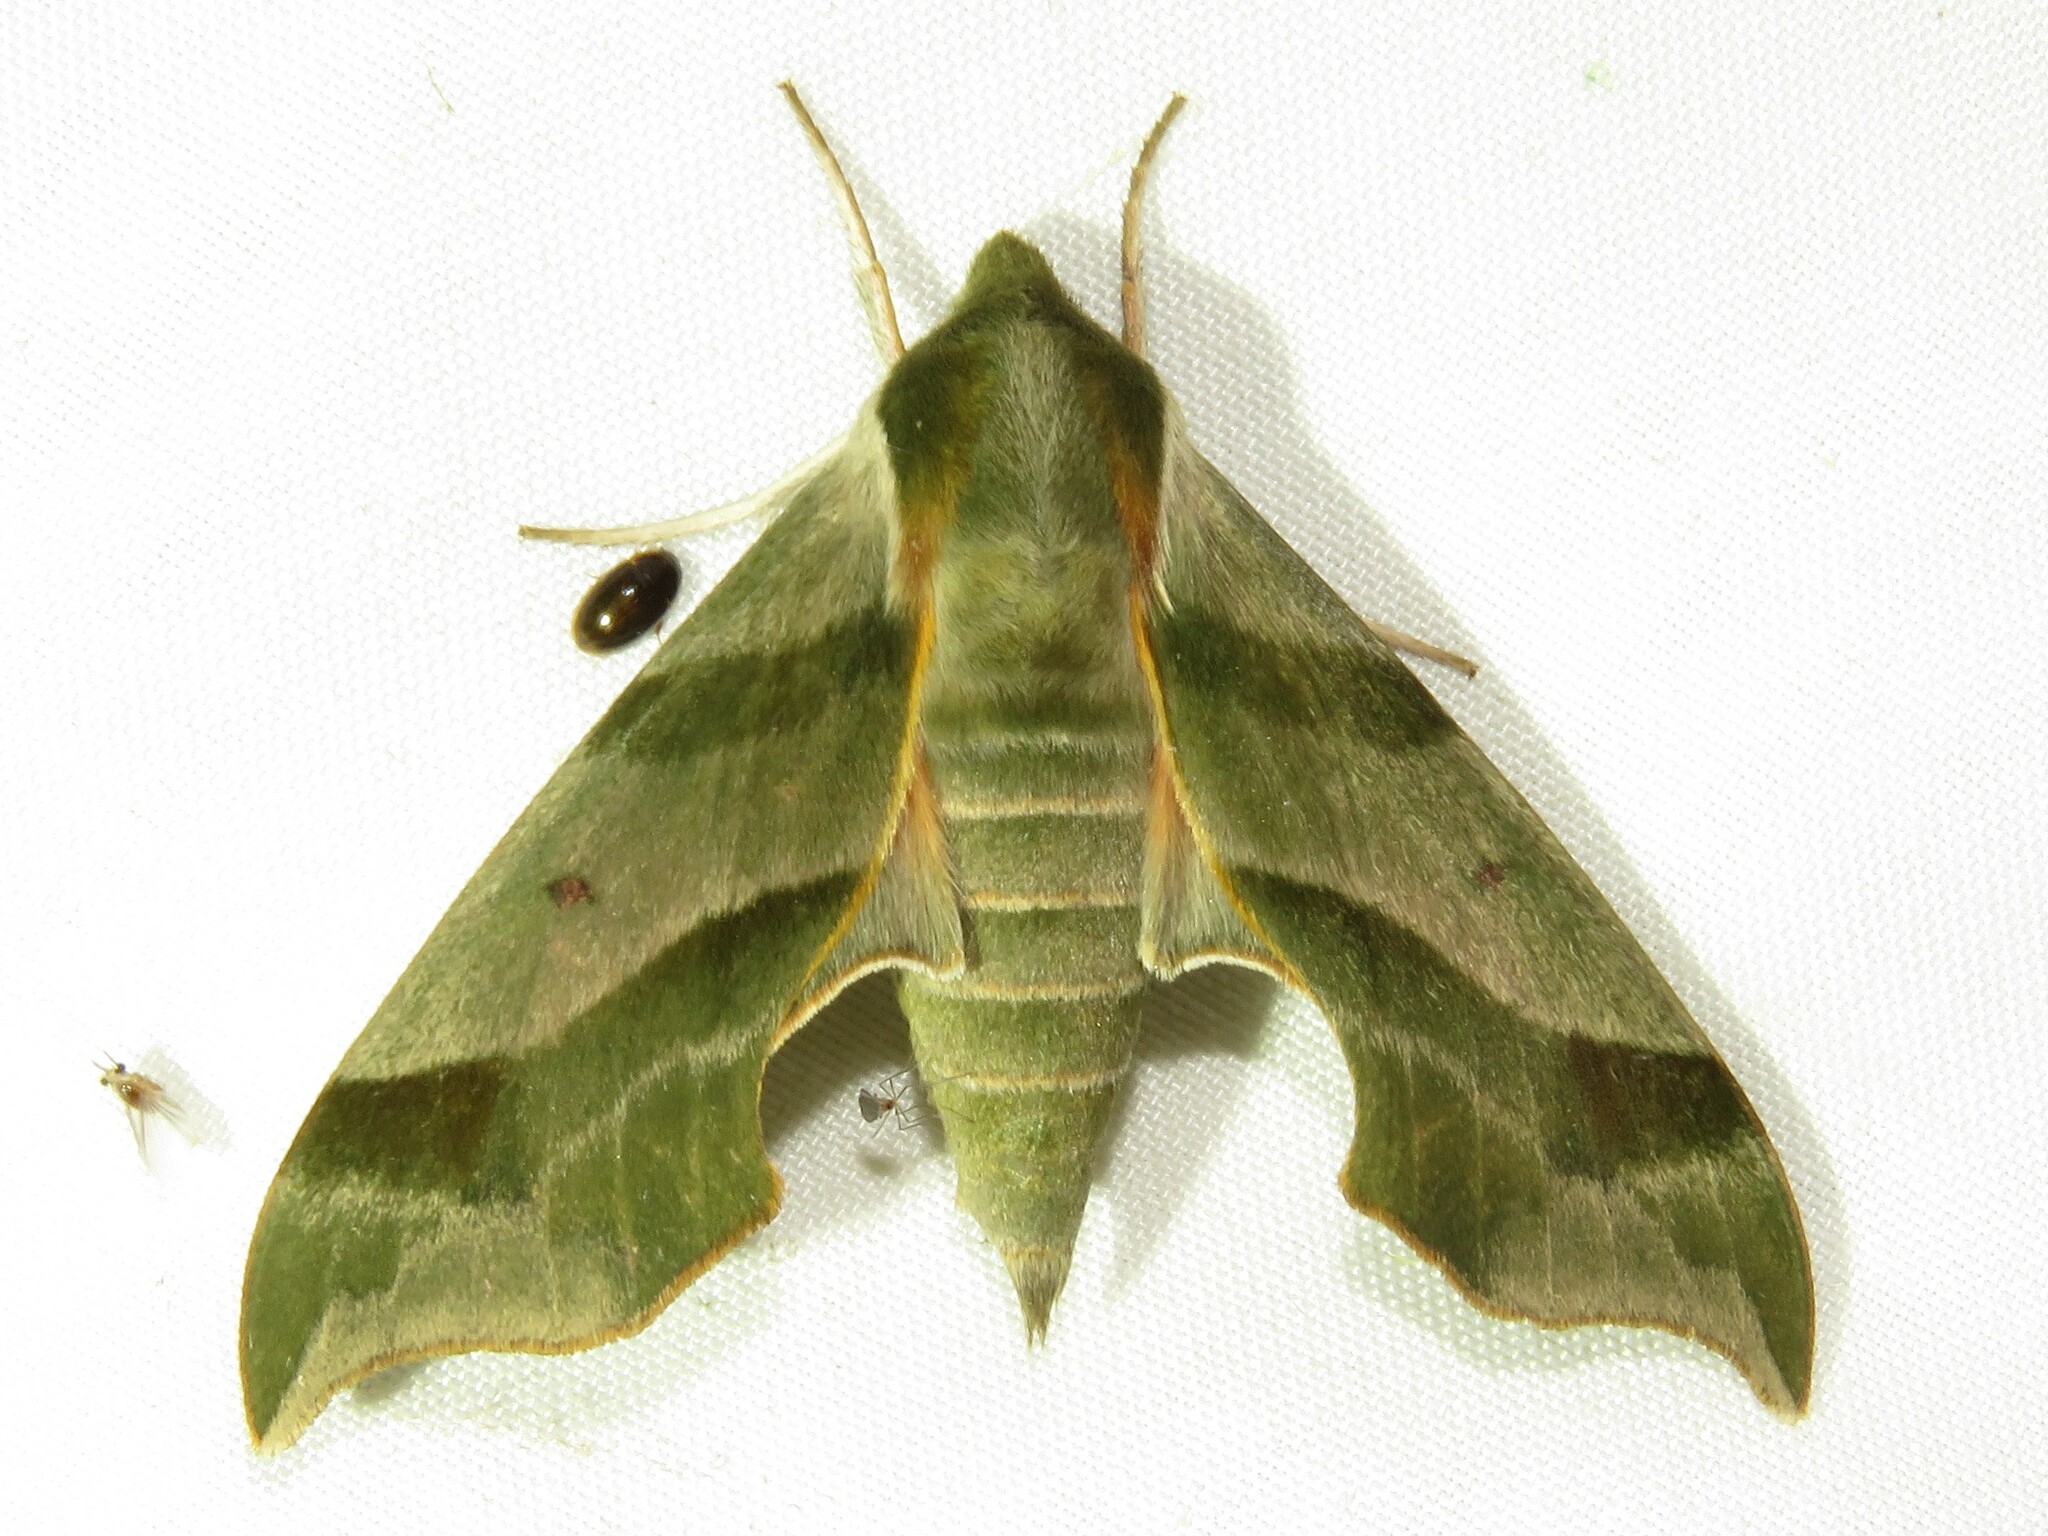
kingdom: Animalia
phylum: Arthropoda
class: Insecta
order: Lepidoptera
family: Sphingidae
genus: Darapsa
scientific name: Darapsa myron
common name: Hog sphinx
